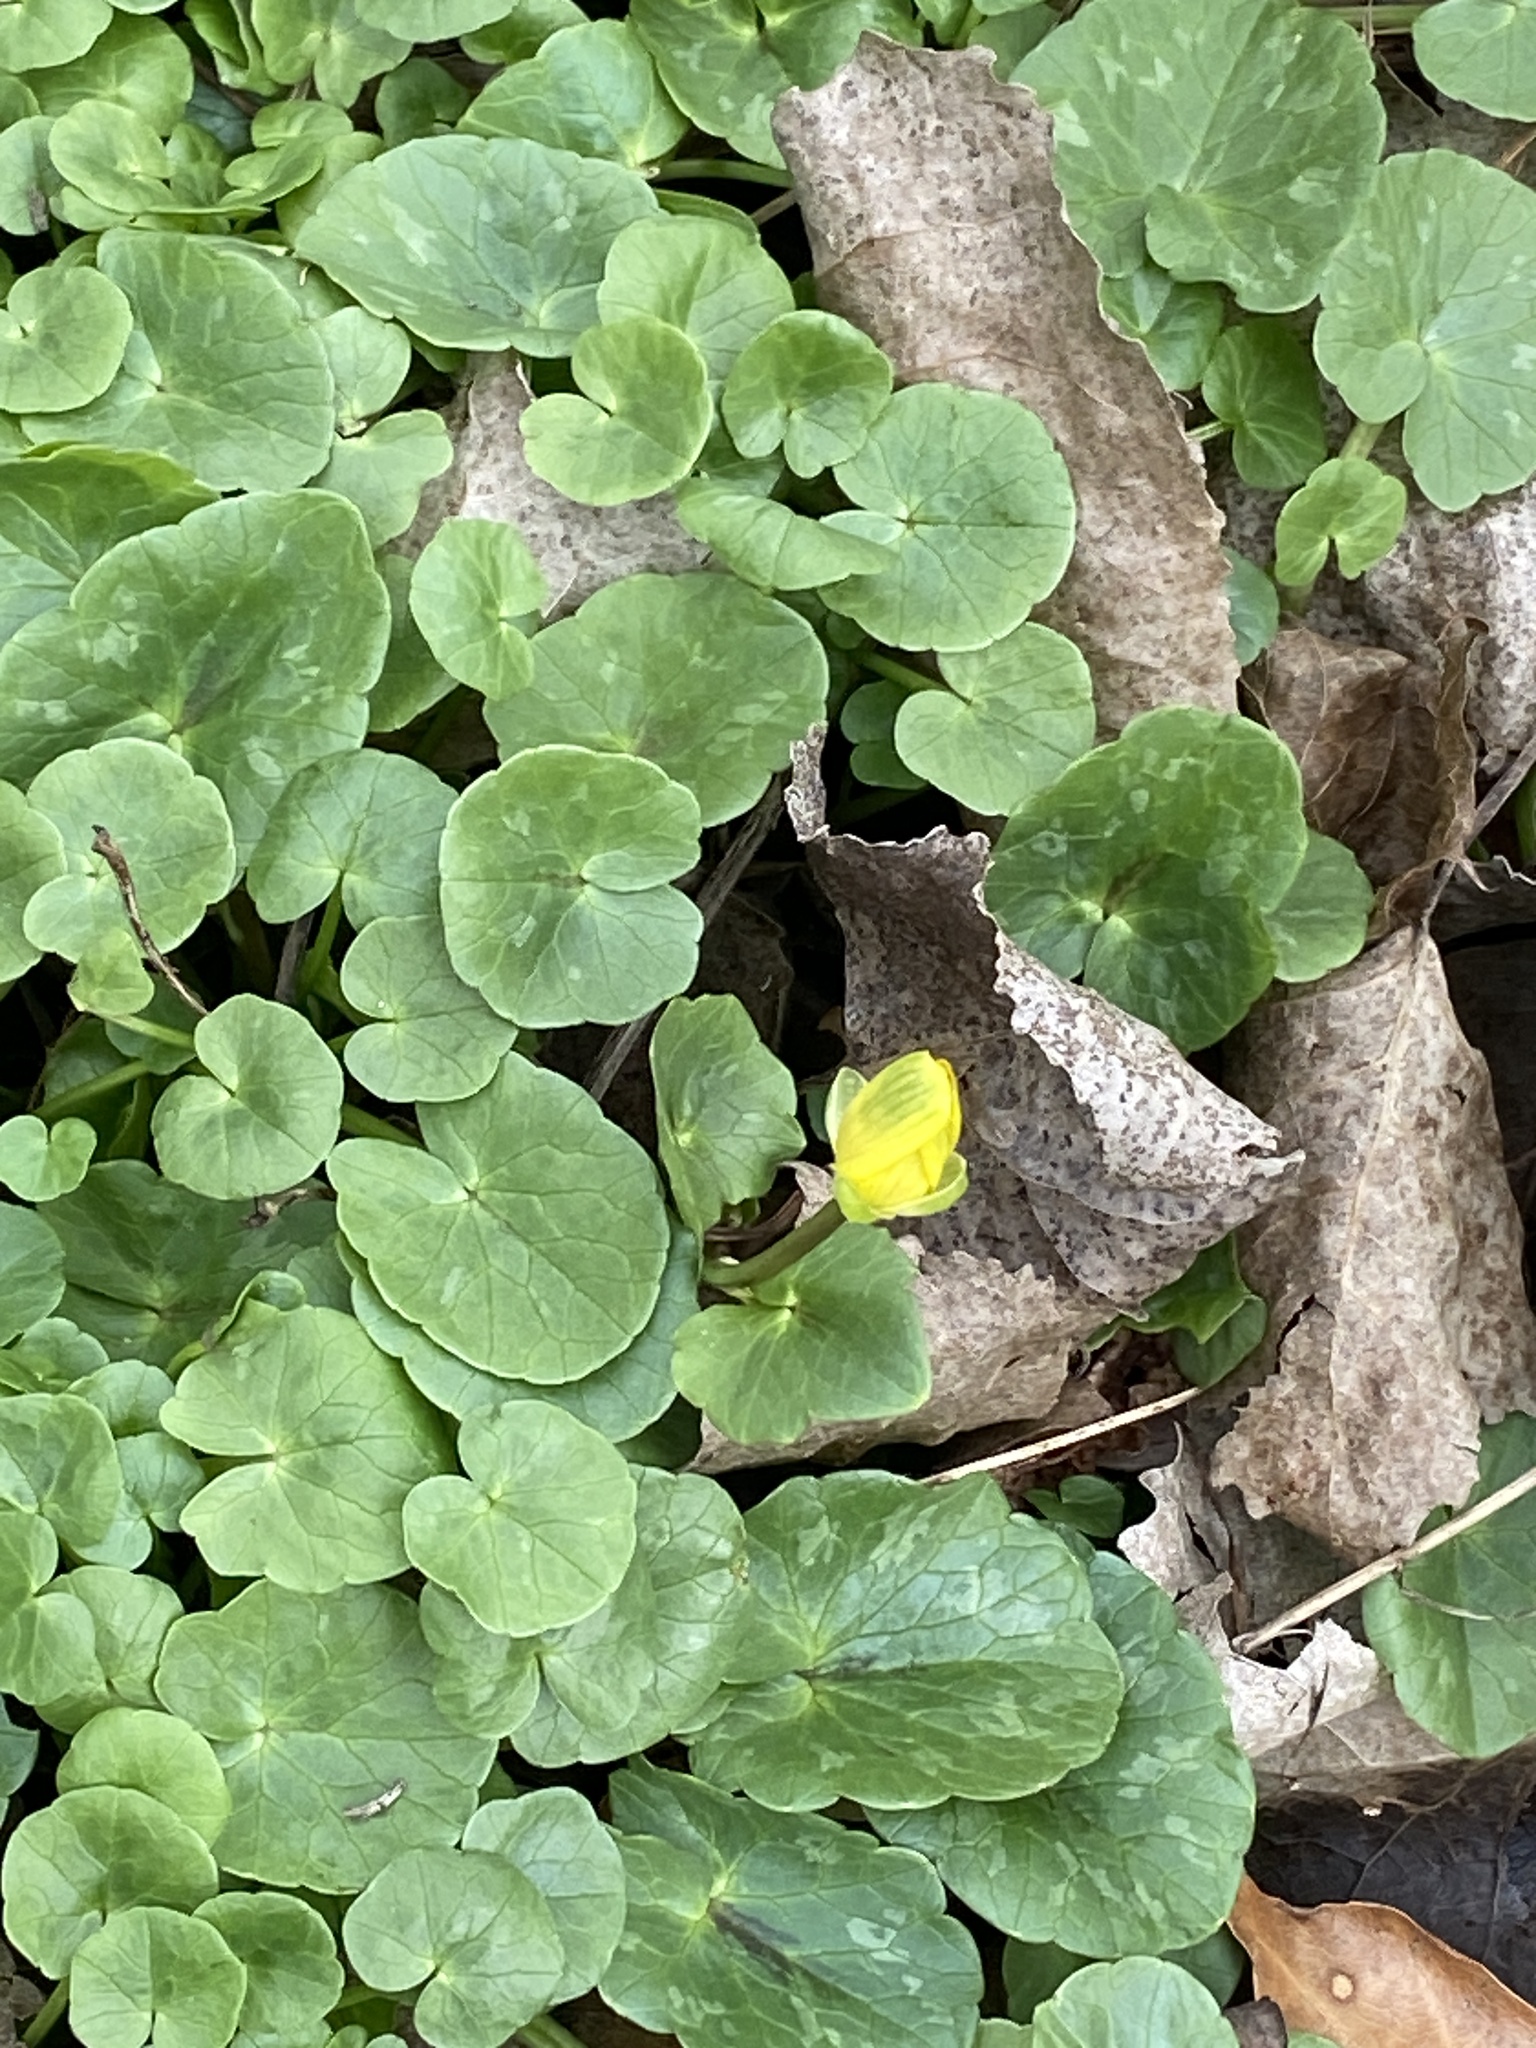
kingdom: Plantae
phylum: Tracheophyta
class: Magnoliopsida
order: Ranunculales
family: Ranunculaceae
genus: Ficaria
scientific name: Ficaria verna
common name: Lesser celandine
